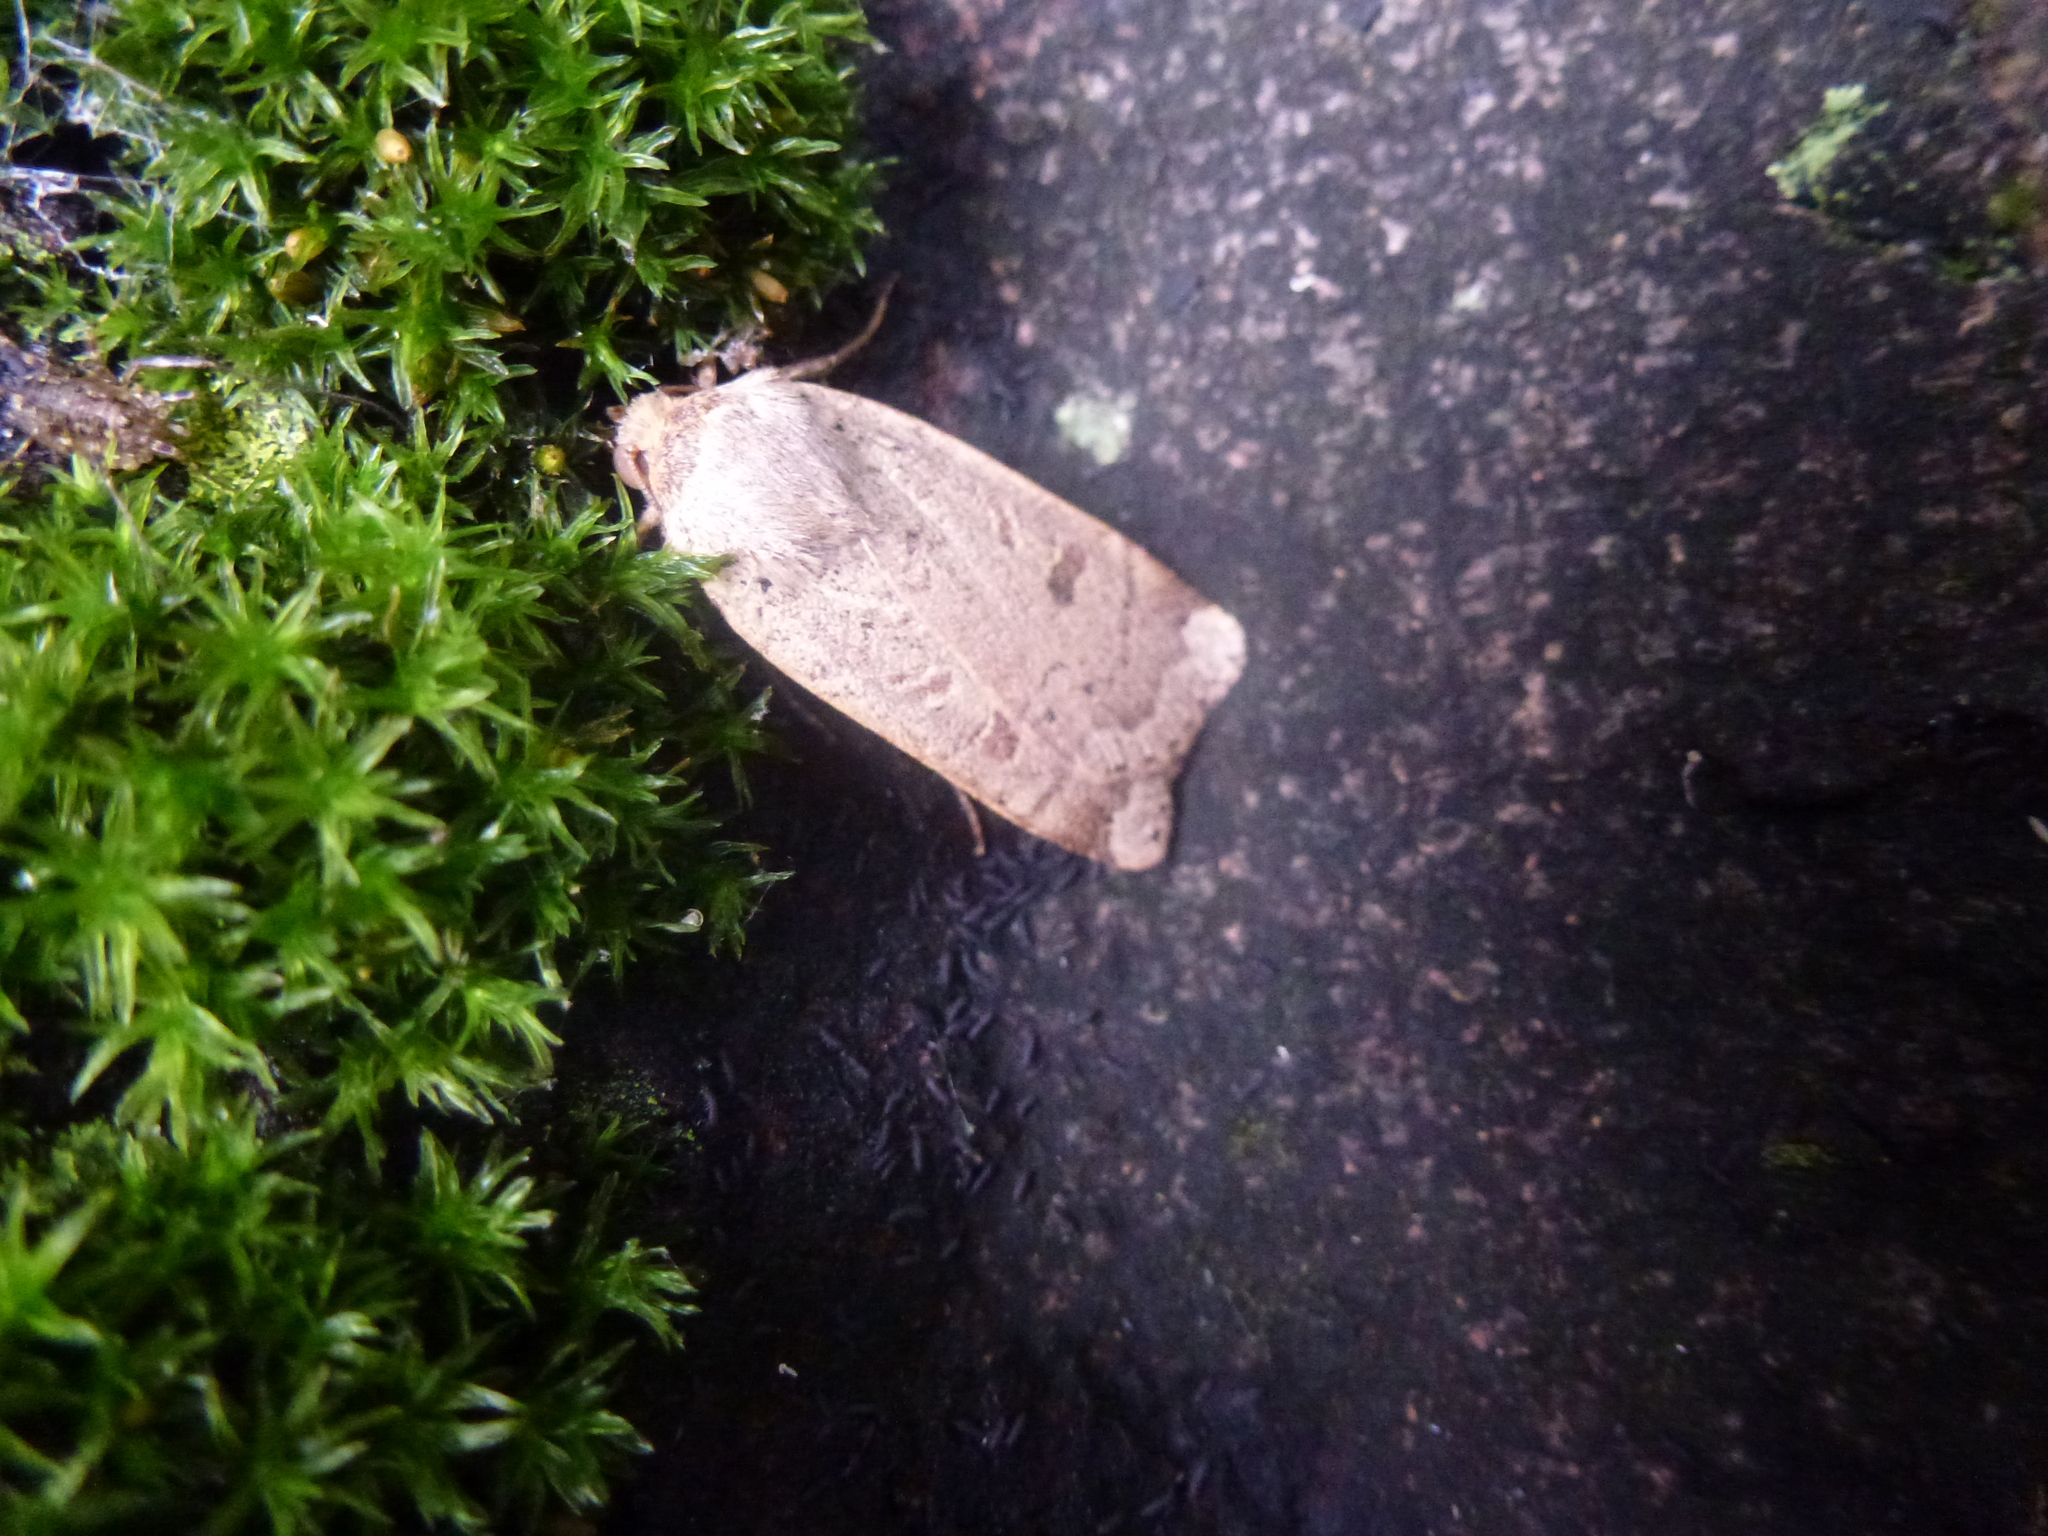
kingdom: Animalia
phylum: Arthropoda
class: Insecta
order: Lepidoptera
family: Noctuidae
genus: Noctua
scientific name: Noctua comes
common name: Lesser yellow underwing
